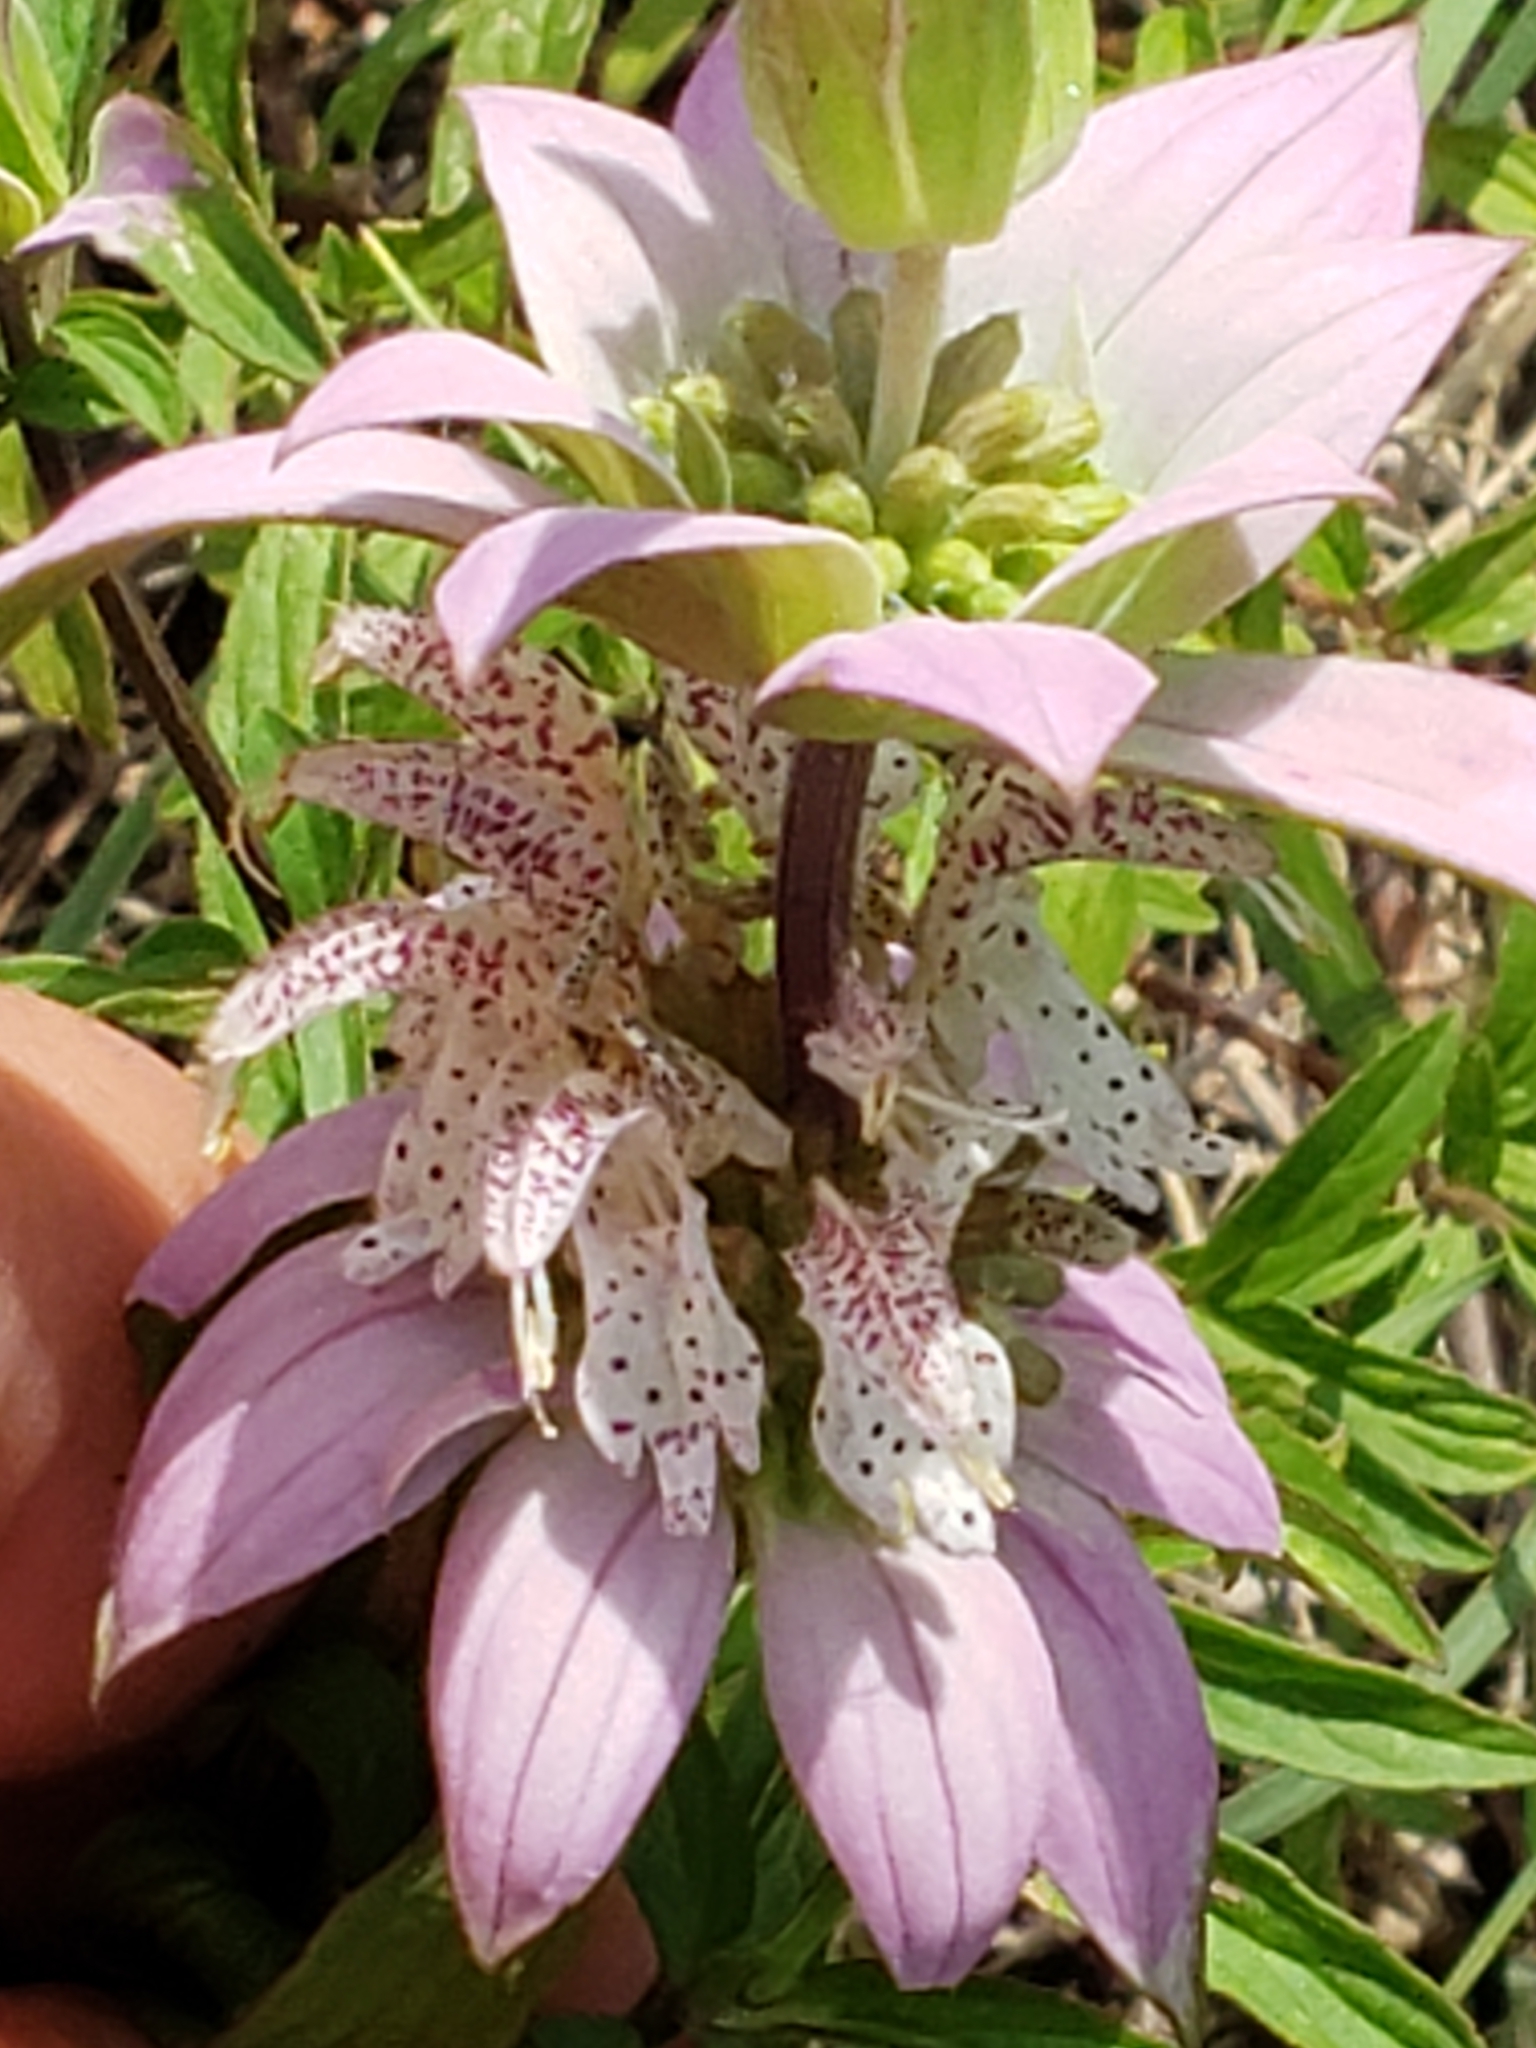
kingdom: Plantae
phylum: Tracheophyta
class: Magnoliopsida
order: Lamiales
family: Lamiaceae
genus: Monarda
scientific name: Monarda punctata
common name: Dotted monarda
